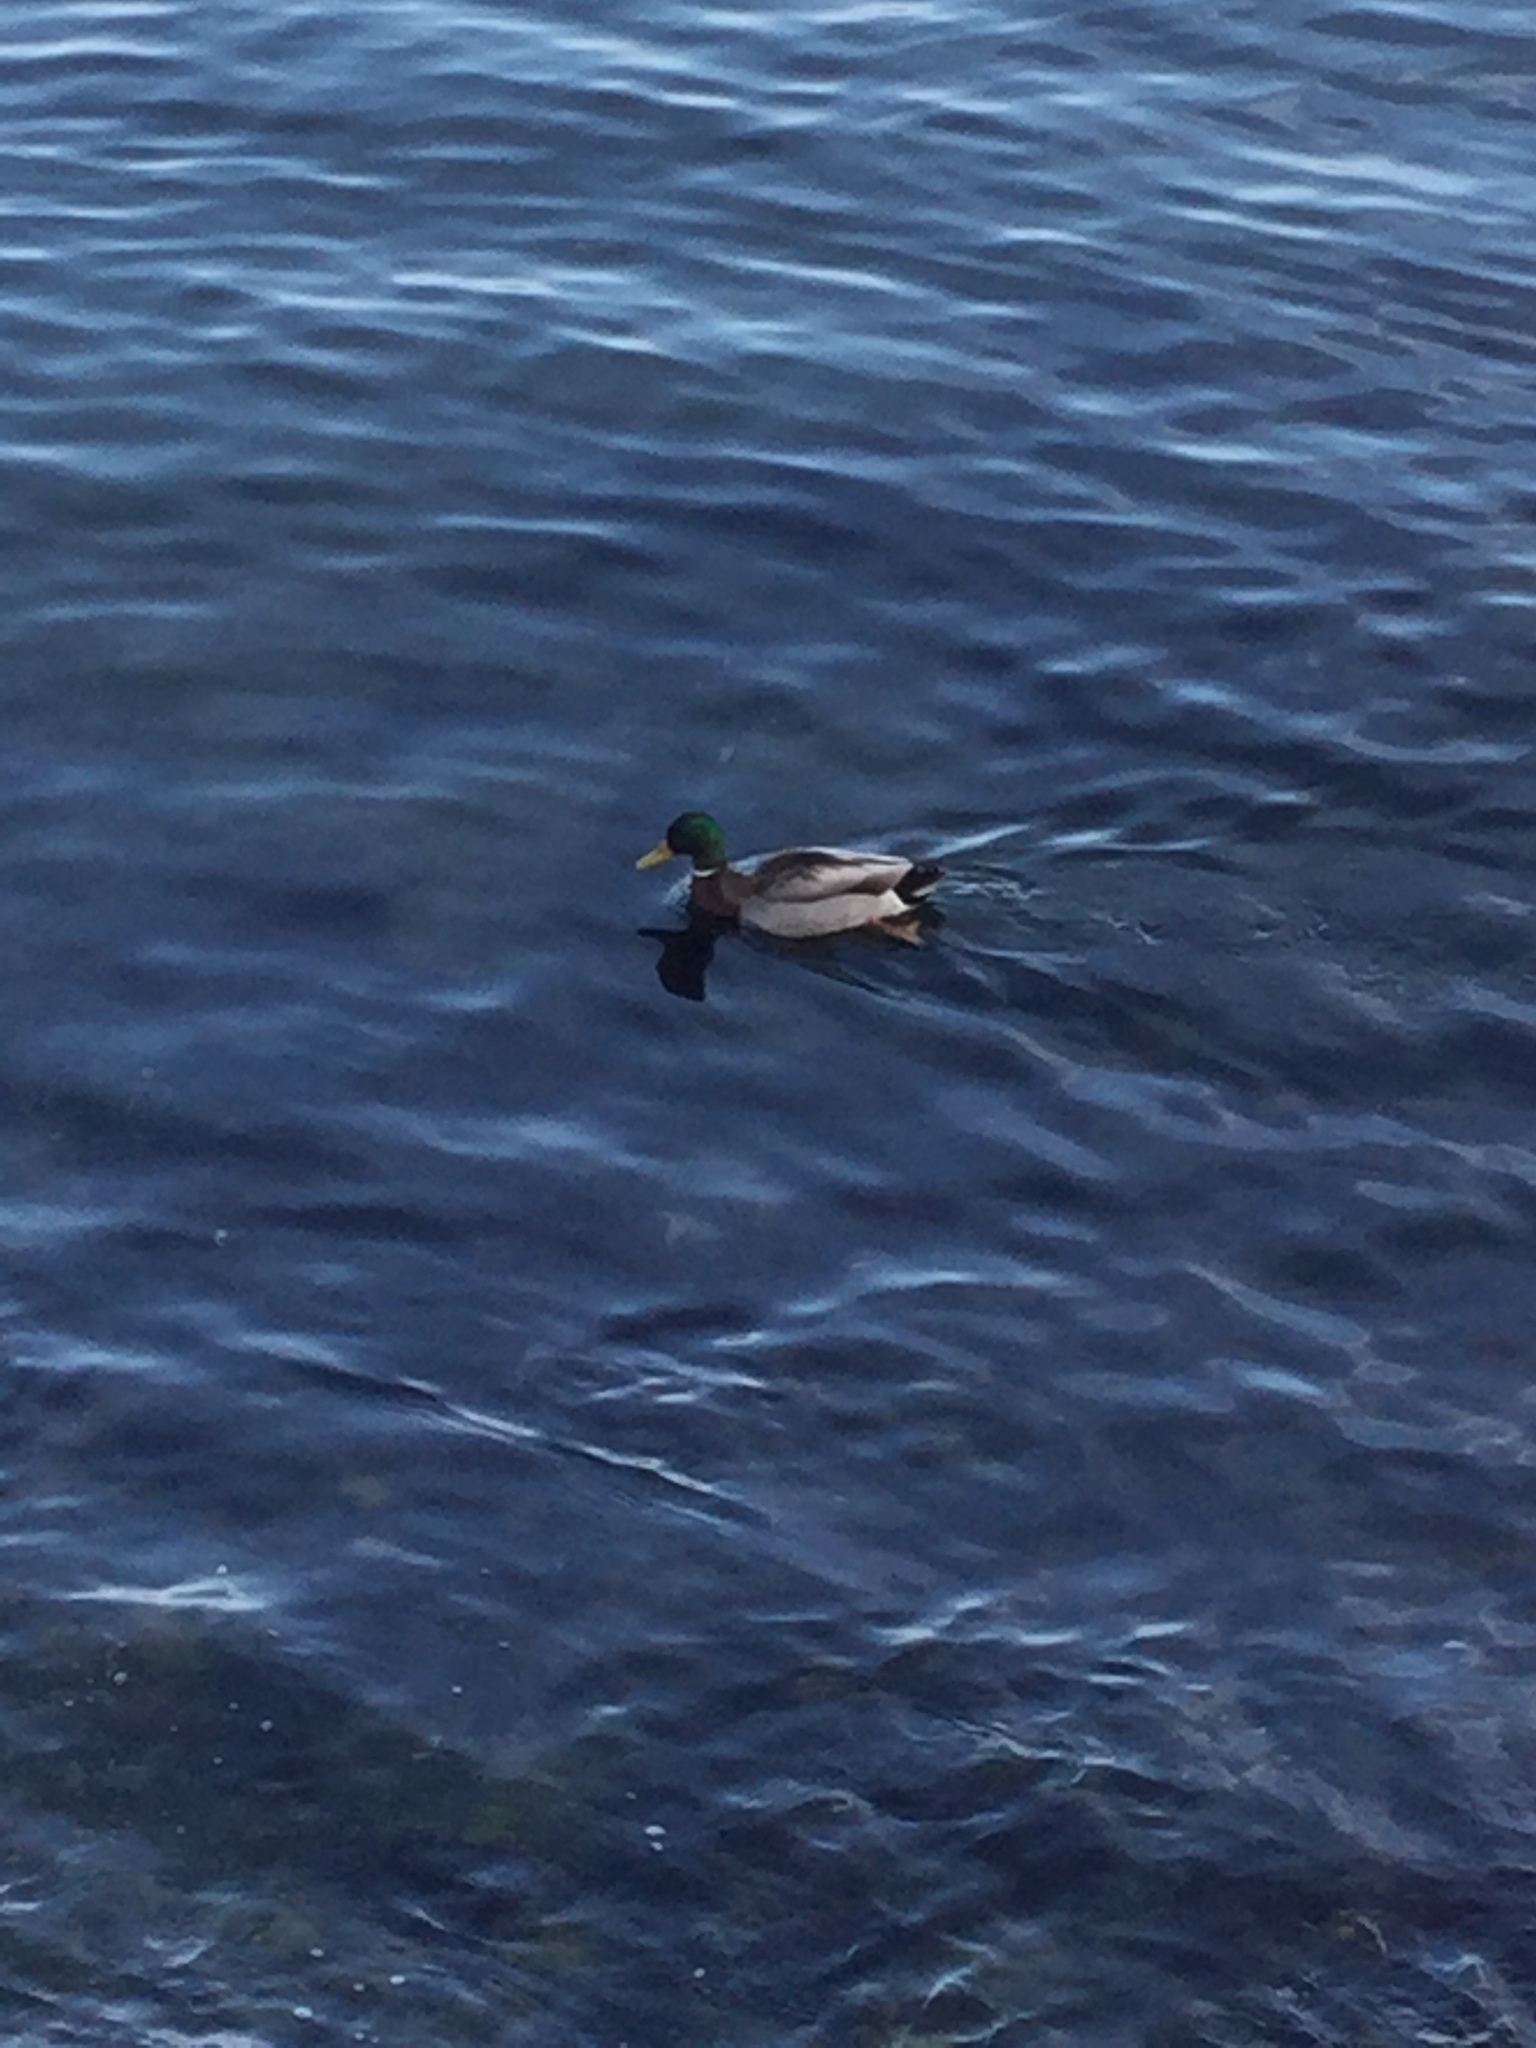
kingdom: Animalia
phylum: Chordata
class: Aves
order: Anseriformes
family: Anatidae
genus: Anas
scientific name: Anas platyrhynchos
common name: Mallard
